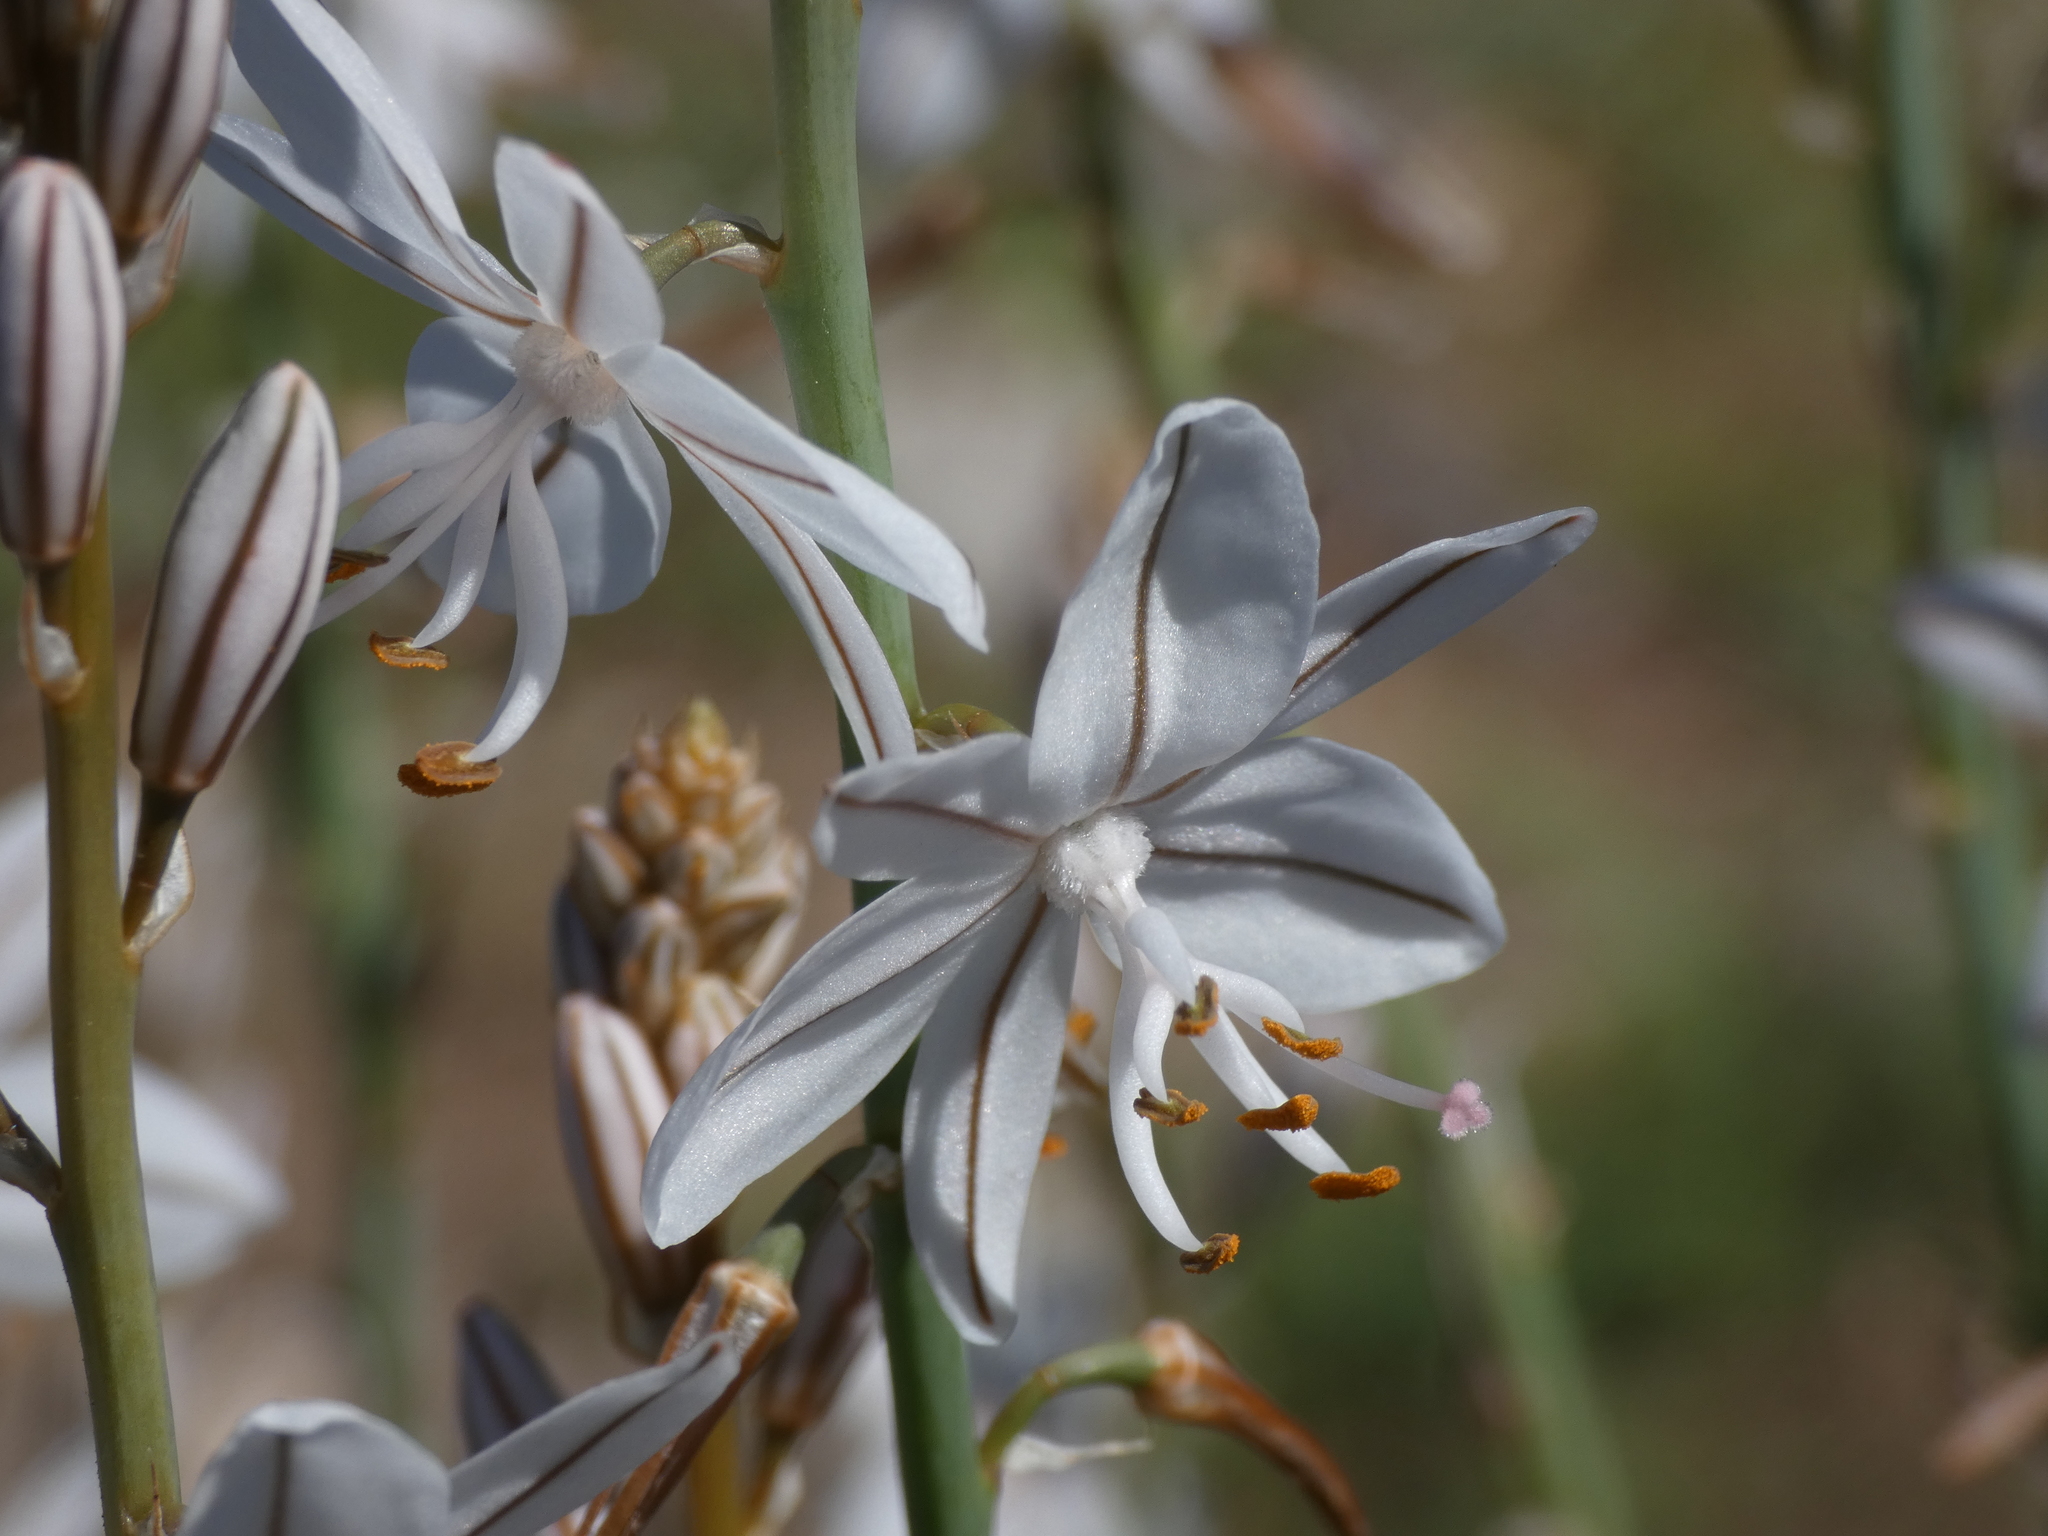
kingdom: Plantae
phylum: Tracheophyta
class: Liliopsida
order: Asparagales
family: Asphodelaceae
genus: Asphodelus
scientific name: Asphodelus ayardii
